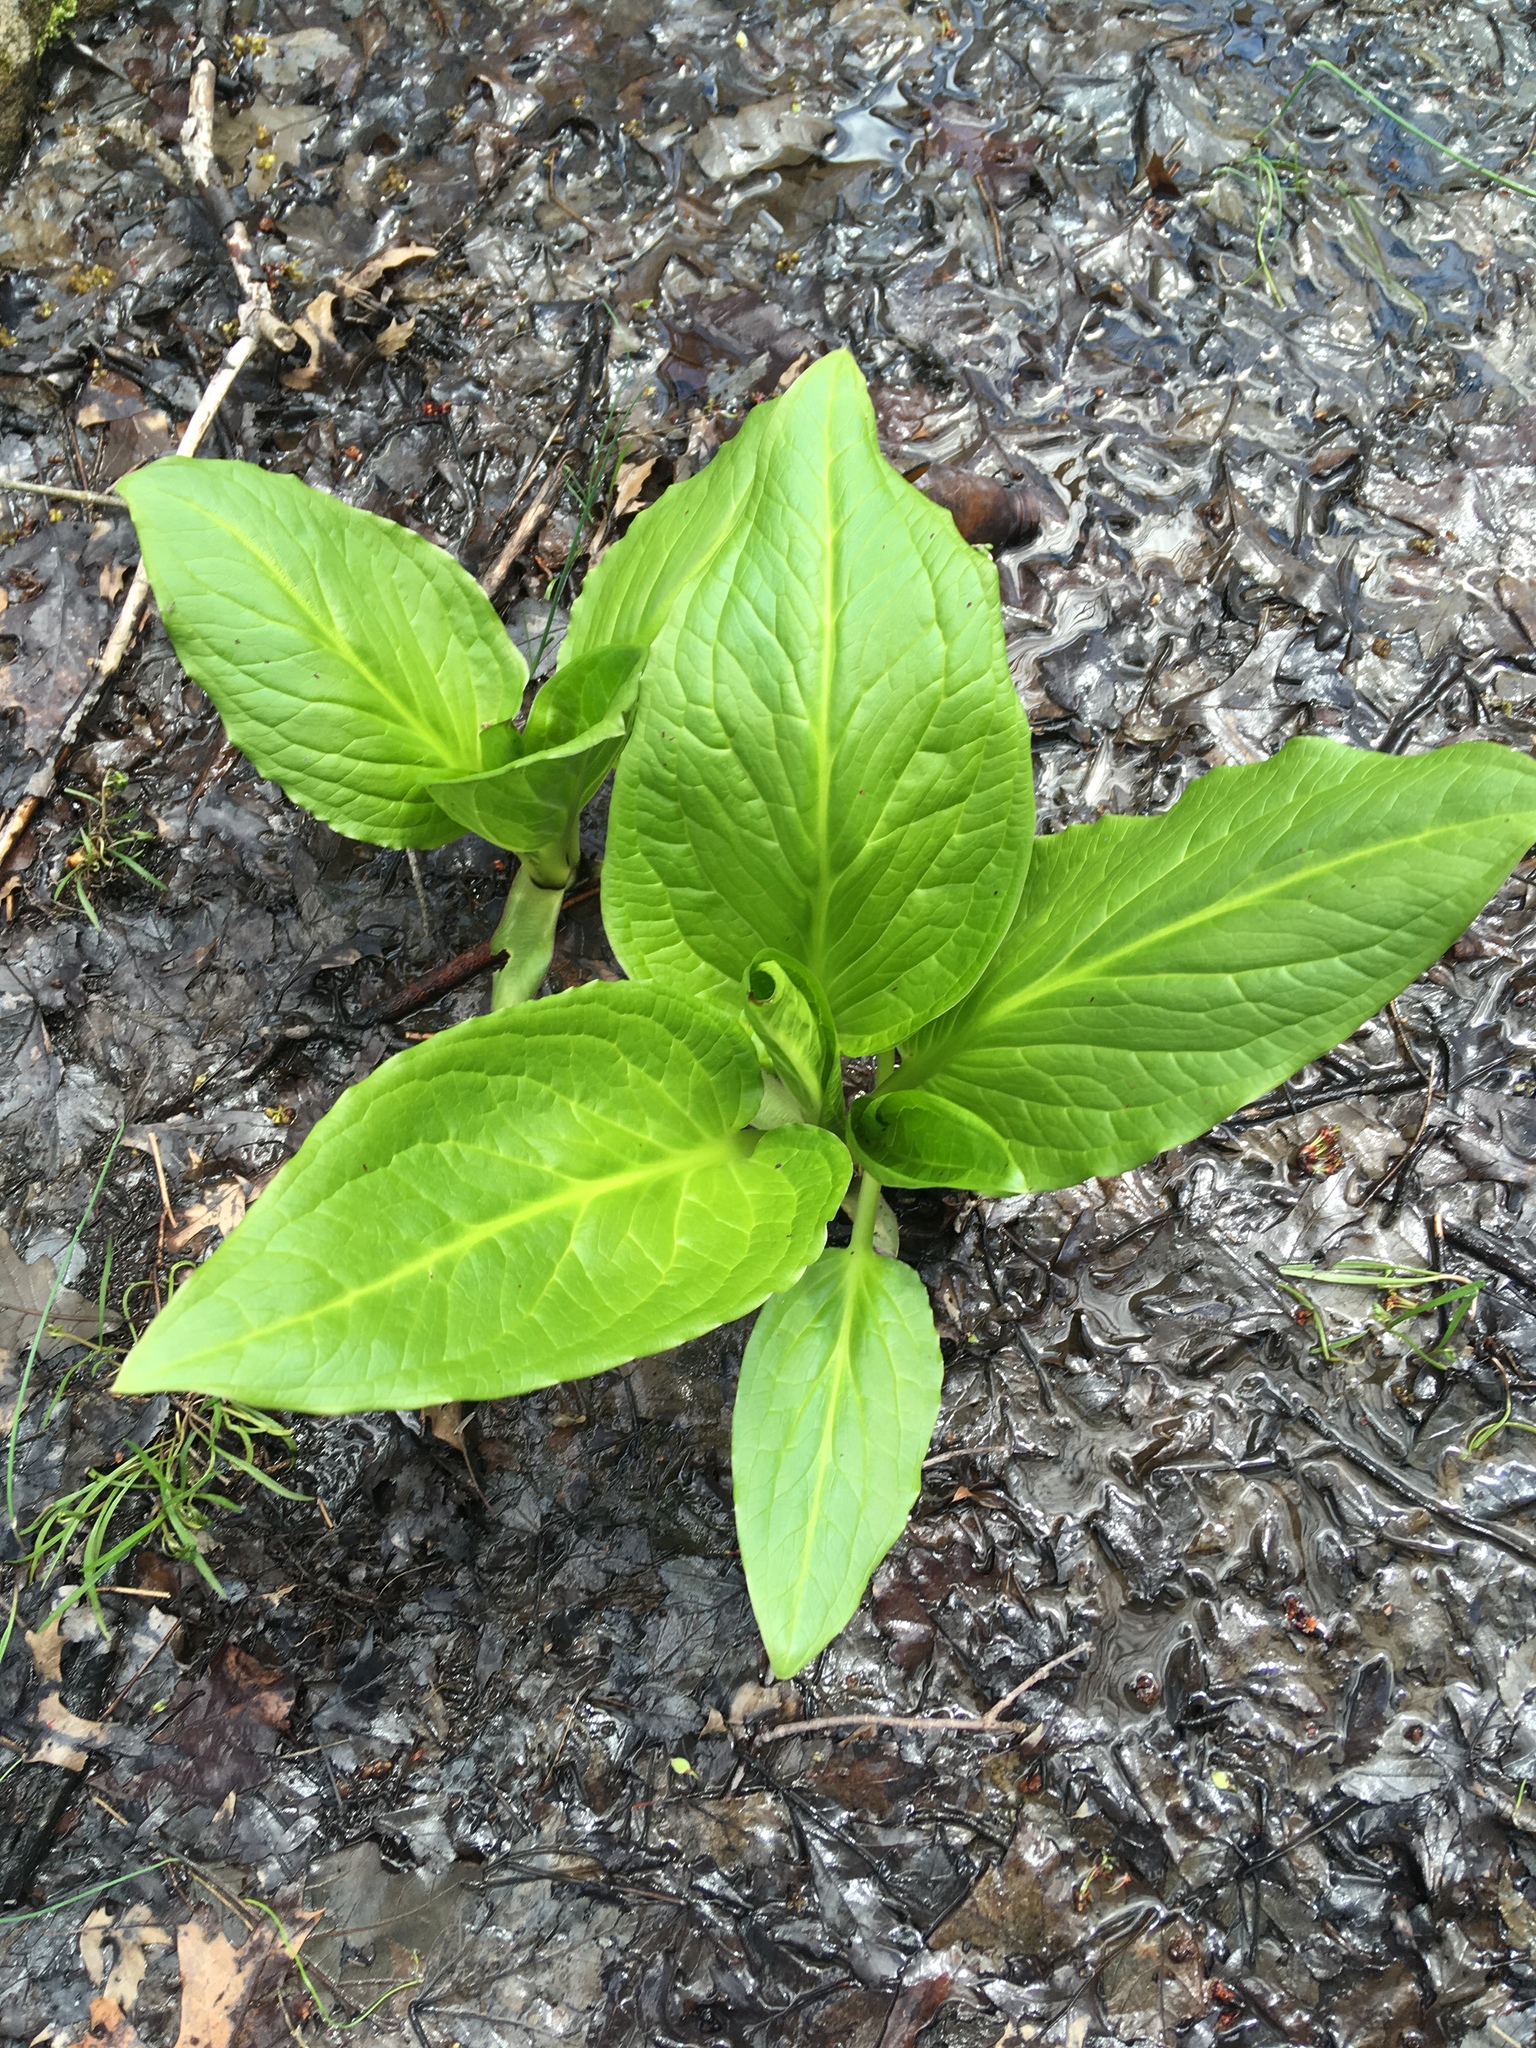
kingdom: Plantae
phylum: Tracheophyta
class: Liliopsida
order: Alismatales
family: Araceae
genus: Symplocarpus
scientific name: Symplocarpus foetidus
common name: Eastern skunk cabbage
